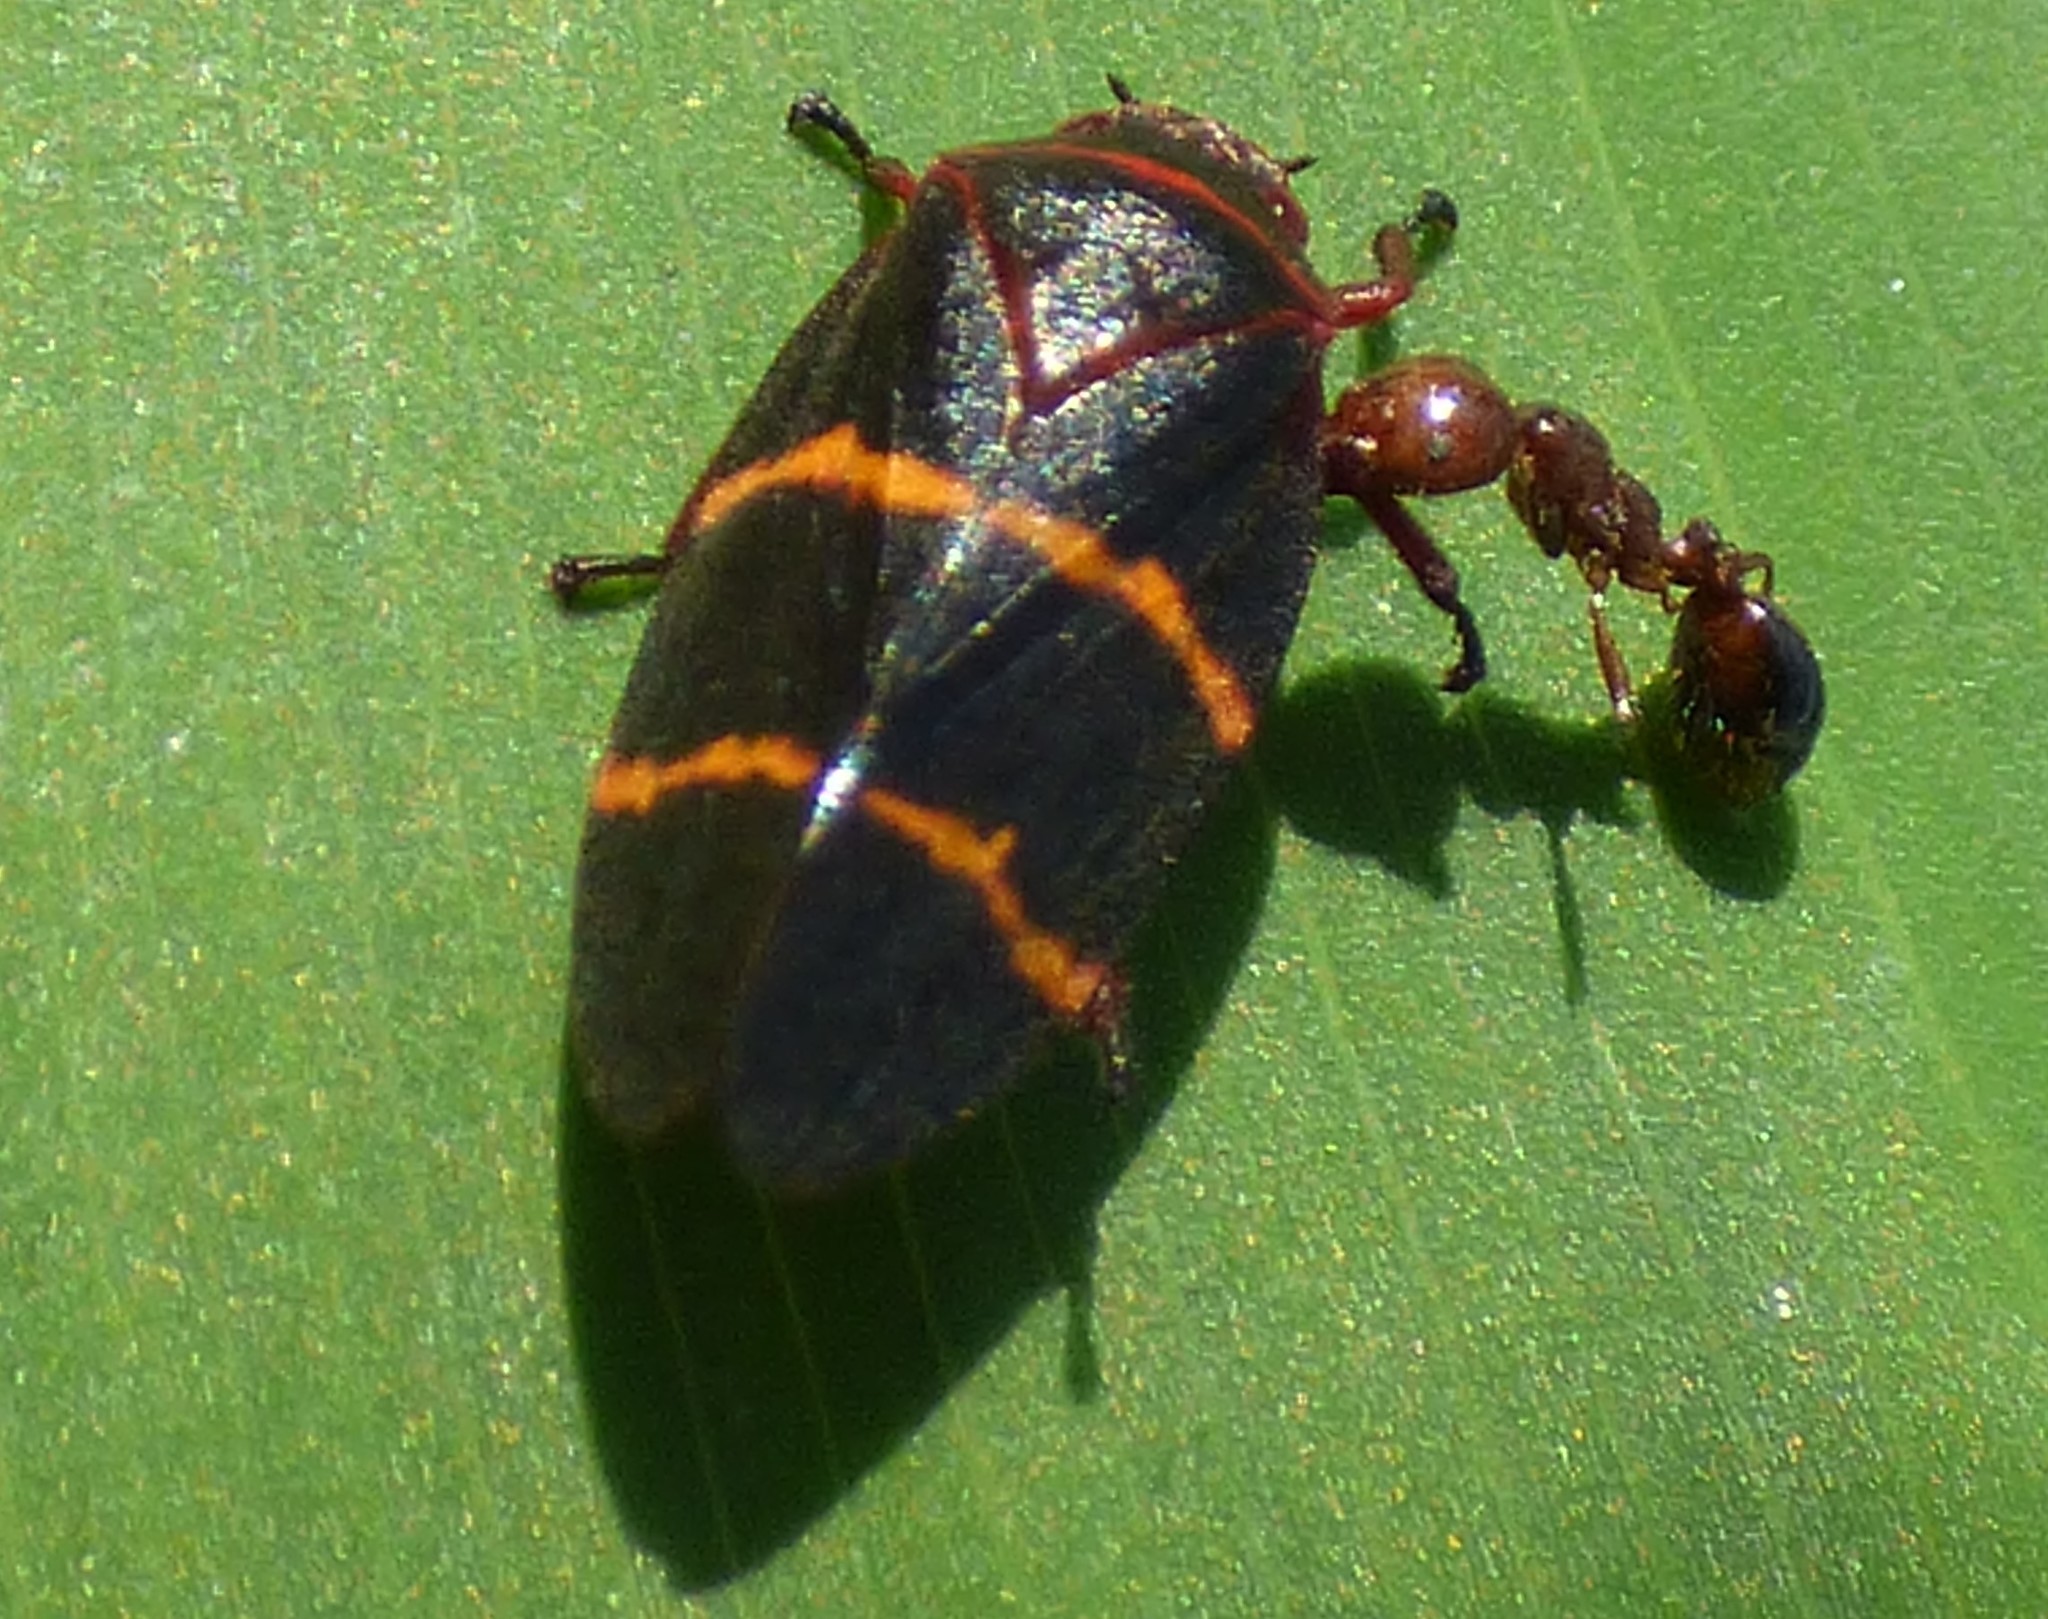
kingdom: Animalia
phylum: Arthropoda
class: Insecta
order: Hemiptera
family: Cercopidae
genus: Prosapia
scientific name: Prosapia bicincta
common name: Twolined spittlebug
